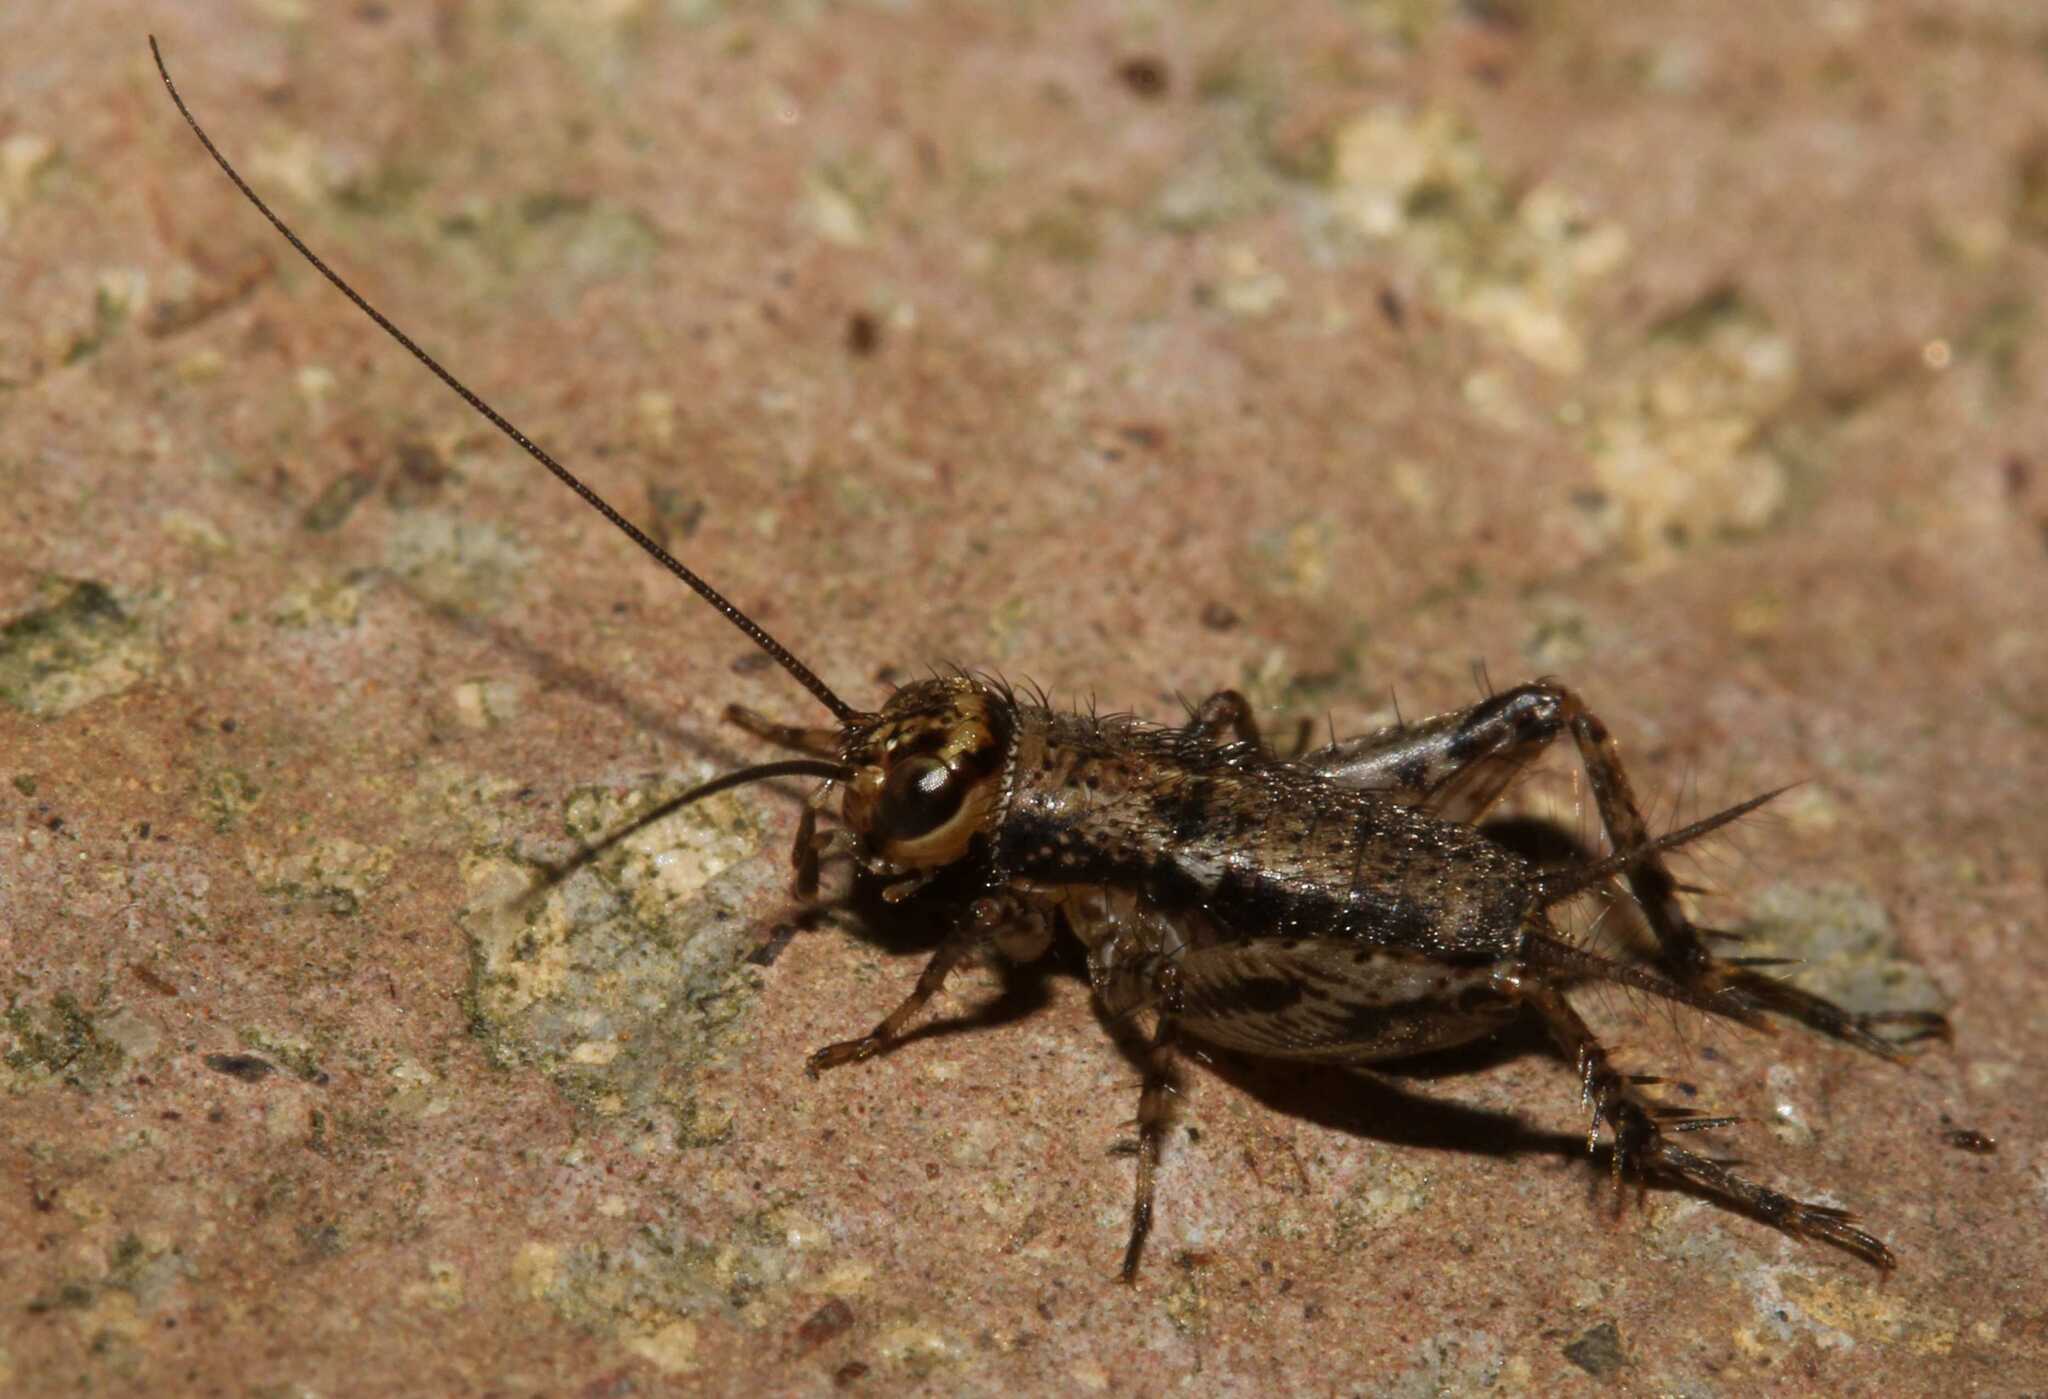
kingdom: Animalia
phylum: Arthropoda
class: Insecta
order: Orthoptera
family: Nemobiidae
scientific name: Nemobiidae
